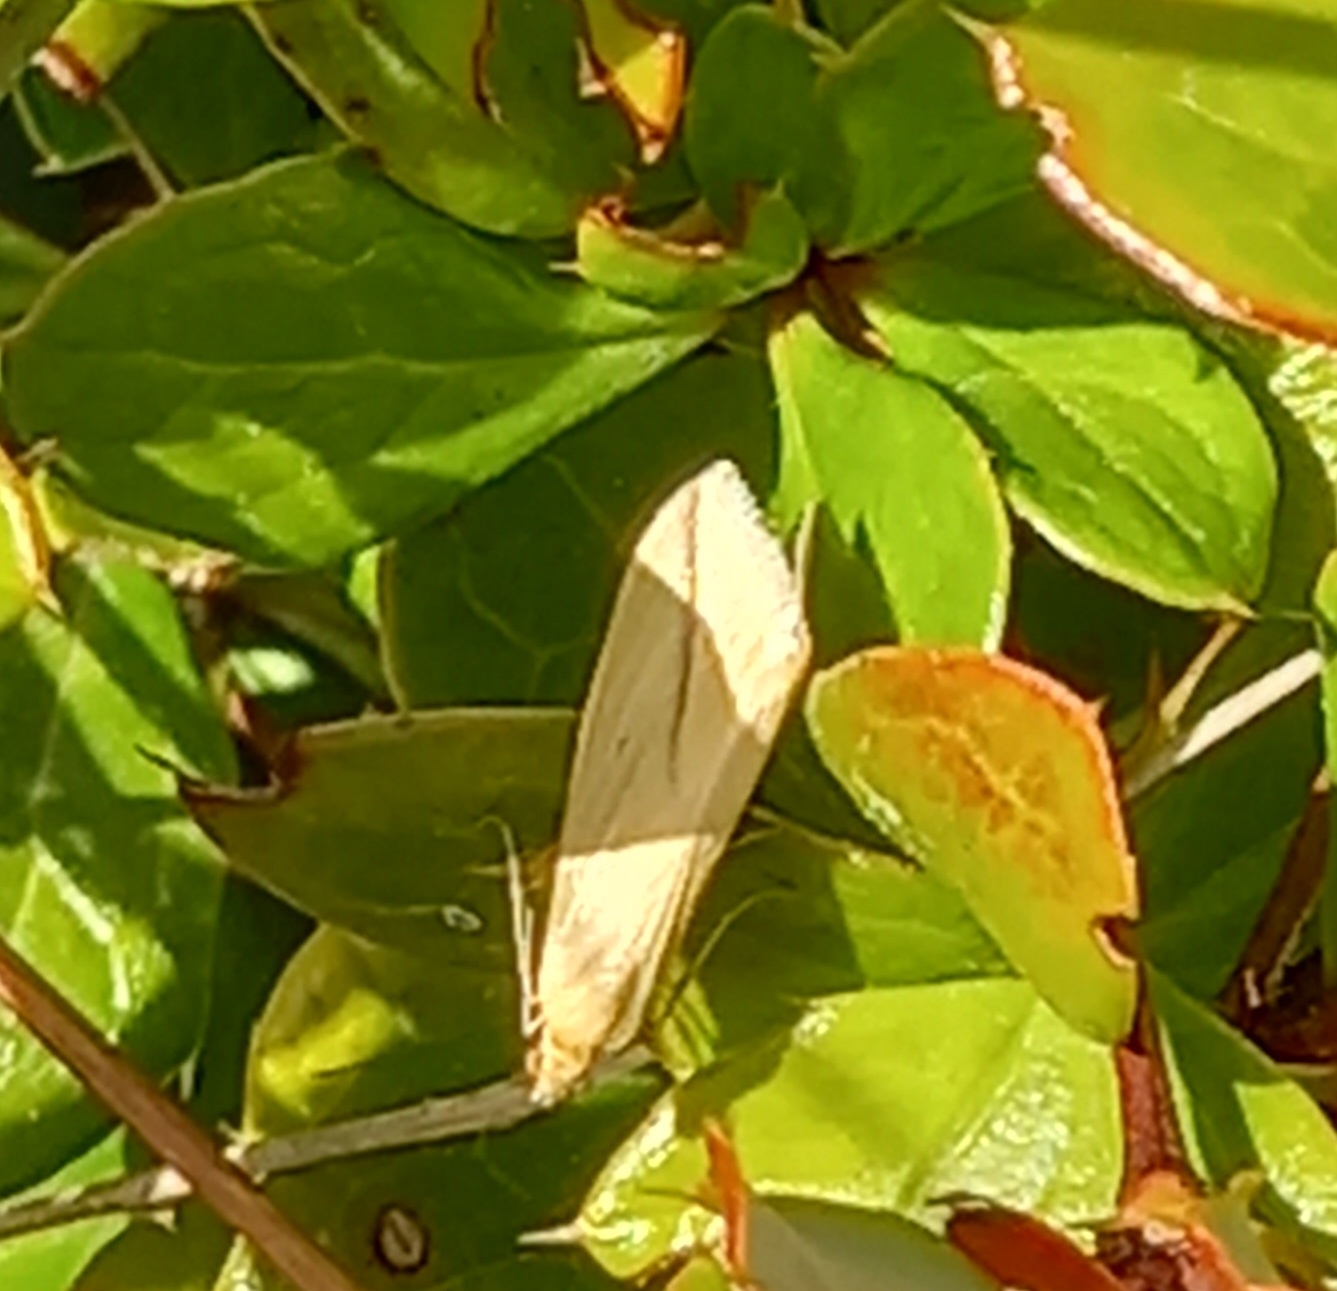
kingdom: Animalia
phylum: Arthropoda
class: Insecta
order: Lepidoptera
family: Geometridae
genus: Rhodometra
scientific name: Rhodometra sacraria
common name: Vestal
